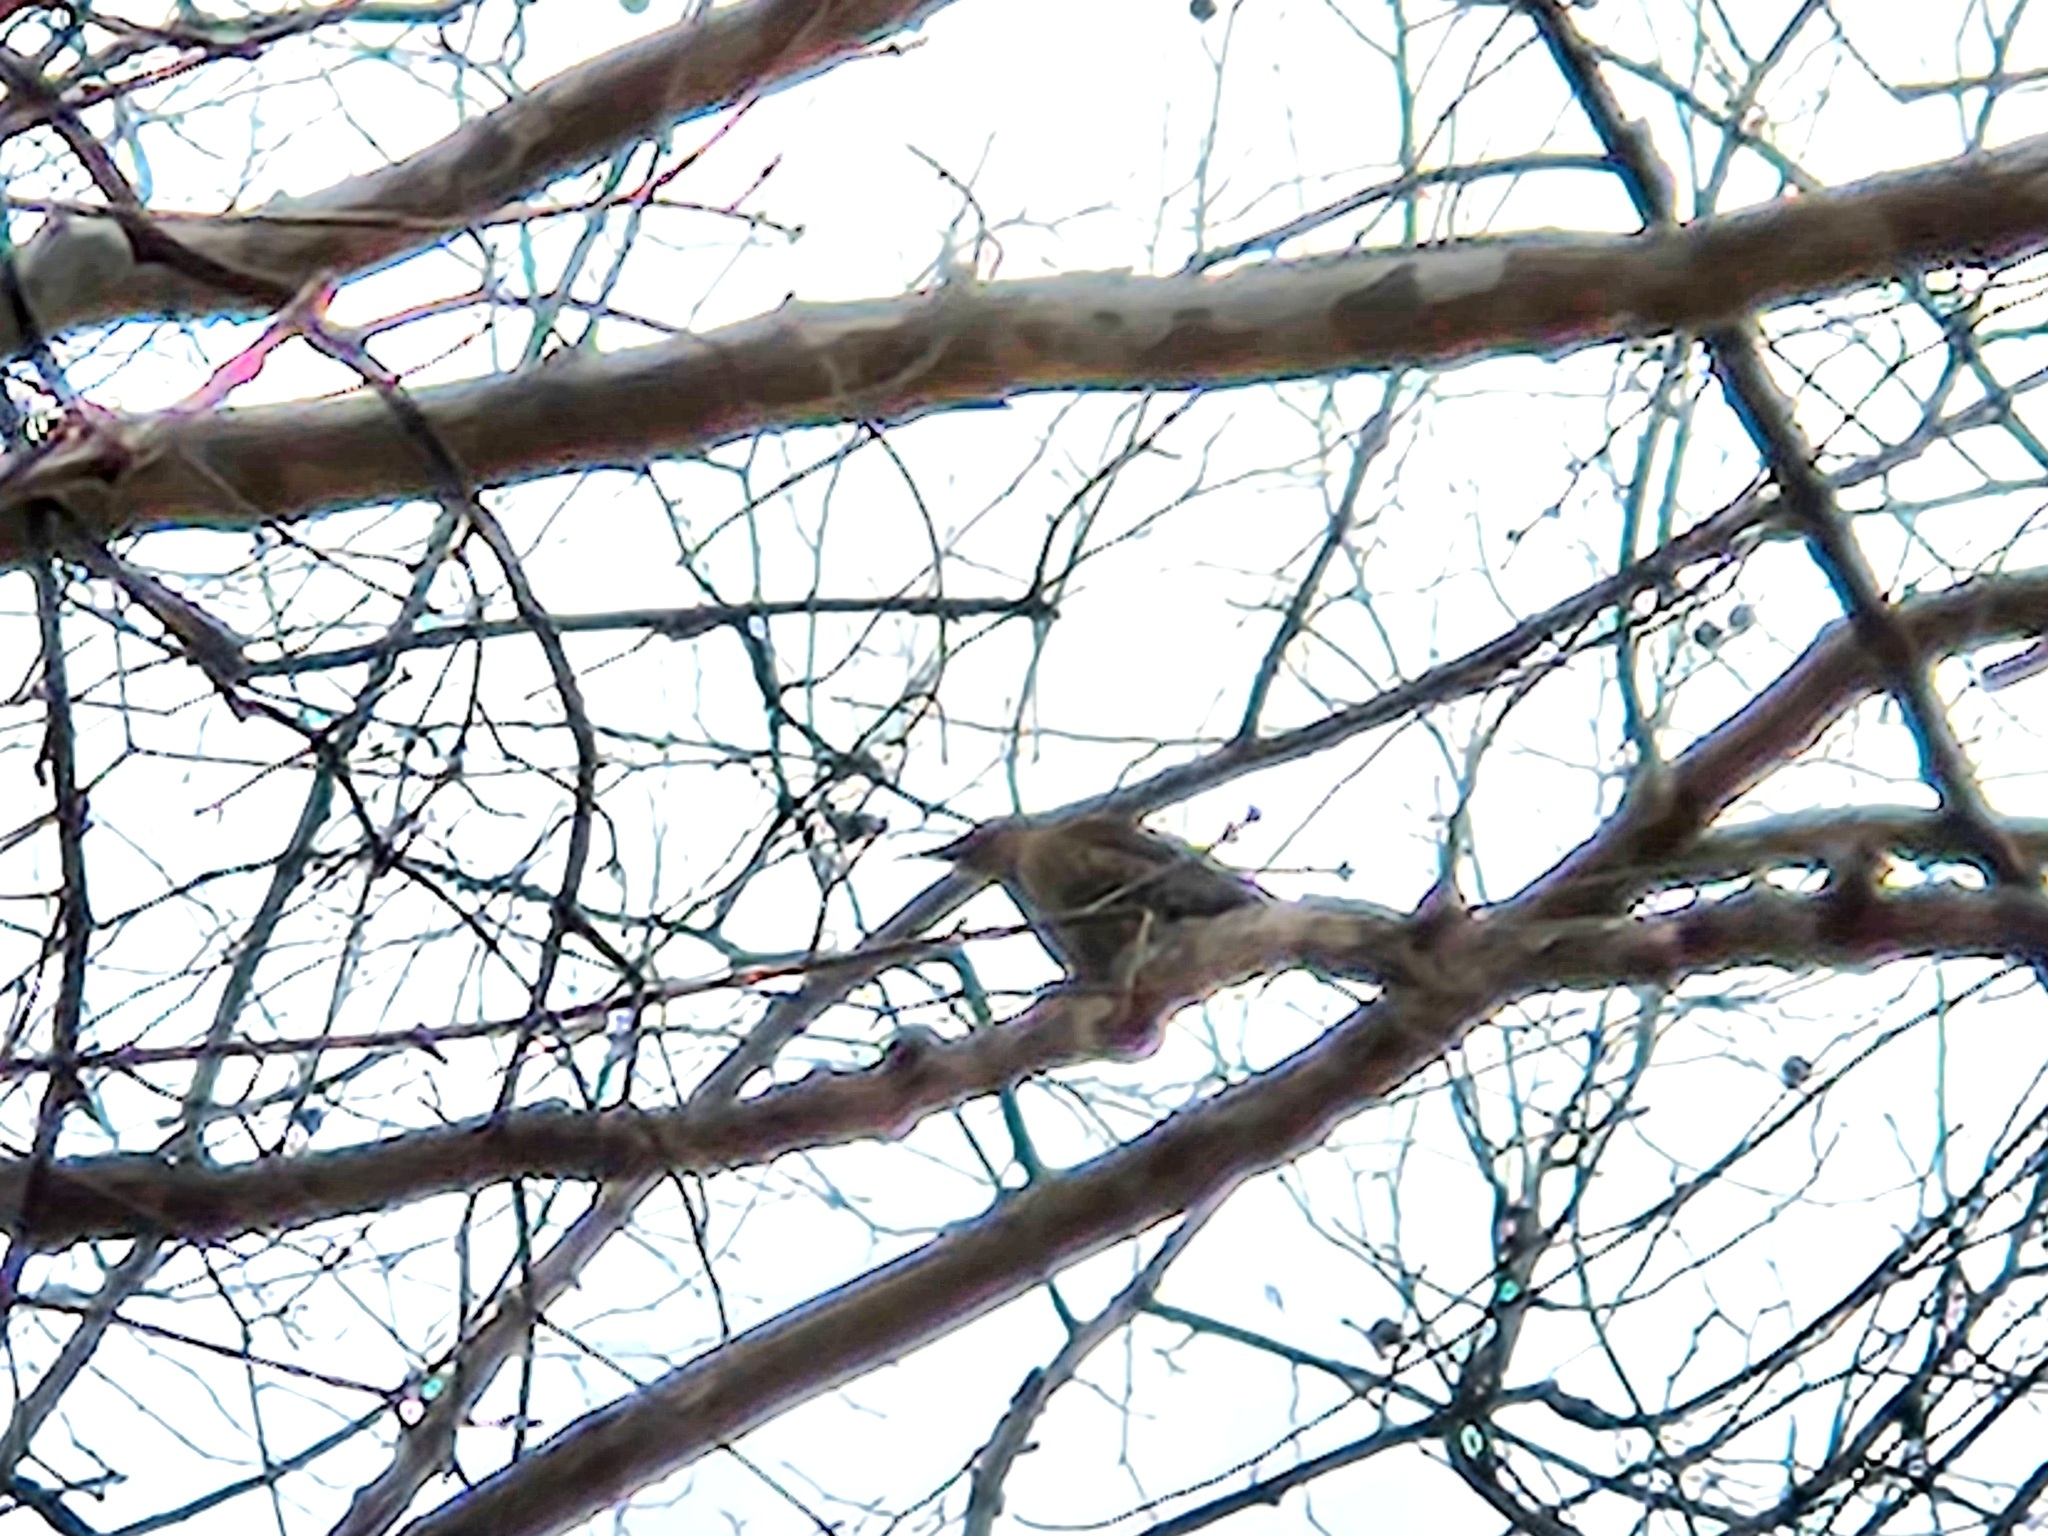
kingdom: Animalia
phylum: Chordata
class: Aves
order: Piciformes
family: Picidae
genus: Colaptes
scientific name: Colaptes auratus
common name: Northern flicker
